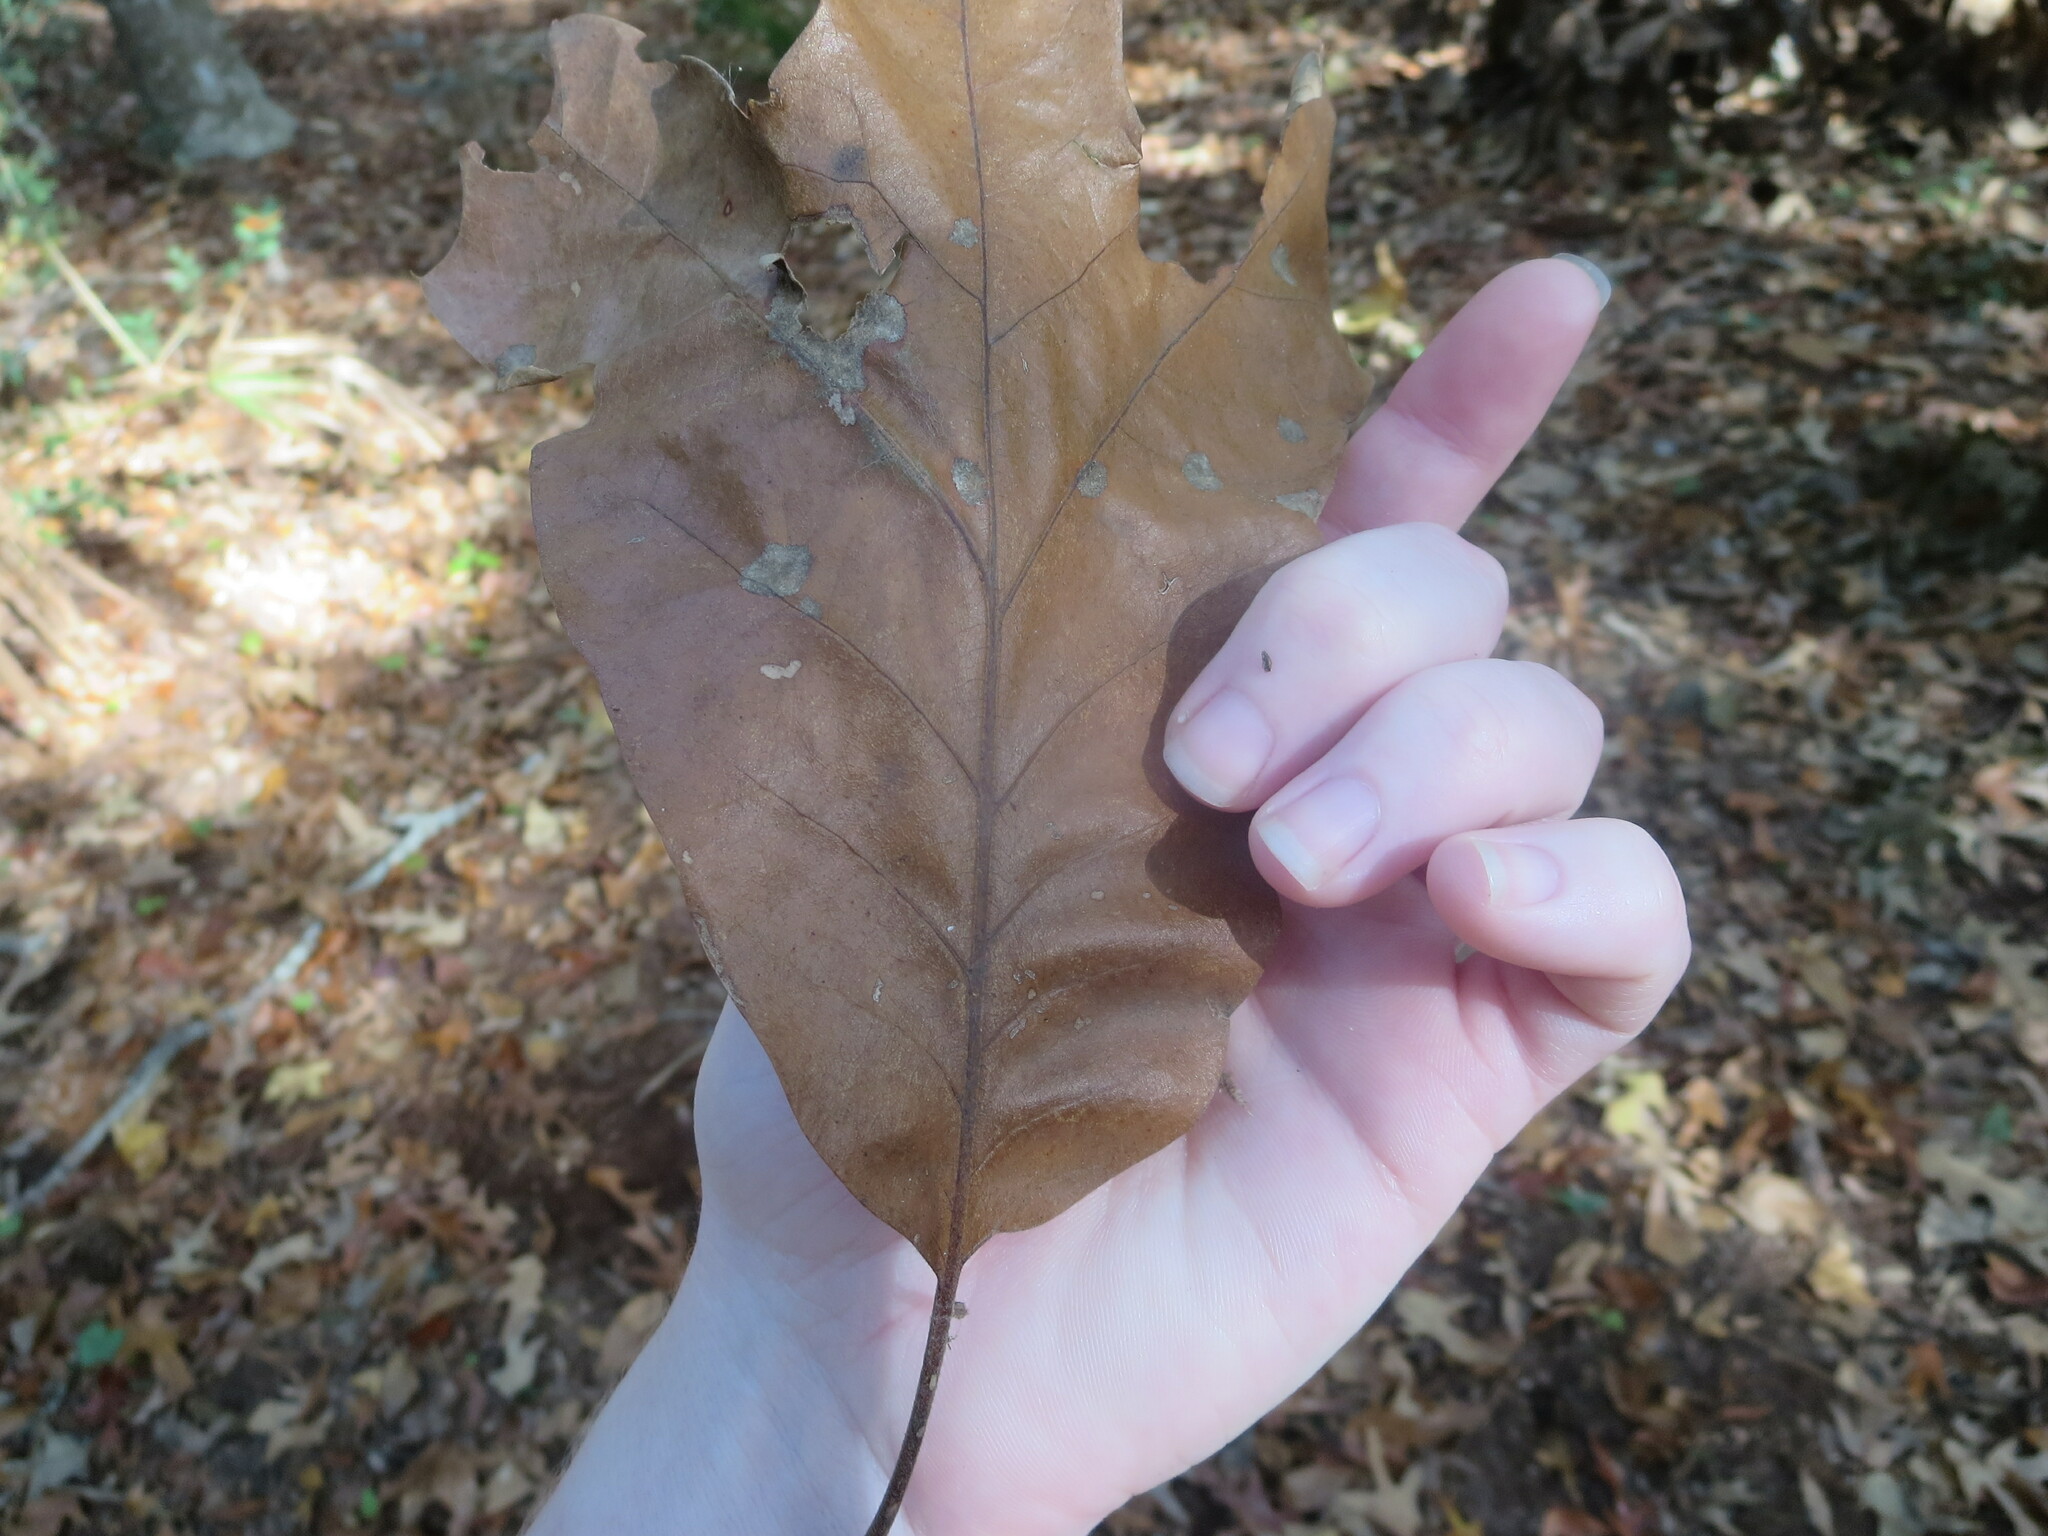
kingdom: Plantae
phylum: Tracheophyta
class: Magnoliopsida
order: Fagales
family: Fagaceae
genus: Quercus
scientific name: Quercus falcata
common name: Southern red oak
